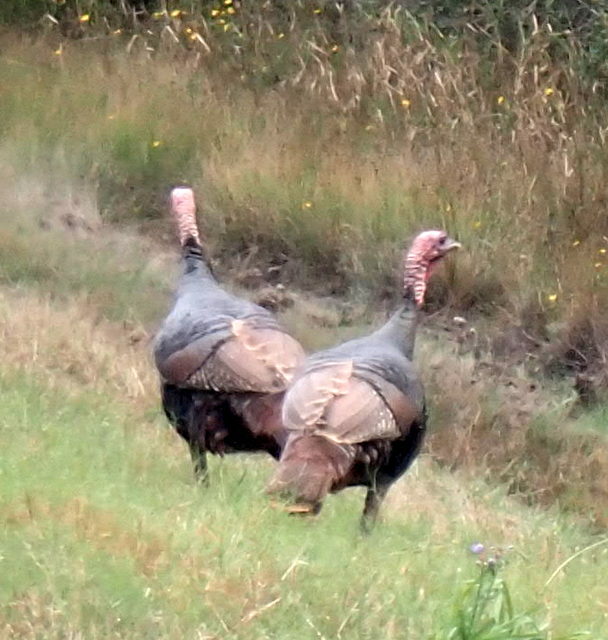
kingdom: Animalia
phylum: Chordata
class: Aves
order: Galliformes
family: Phasianidae
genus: Meleagris
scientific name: Meleagris gallopavo
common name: Wild turkey
